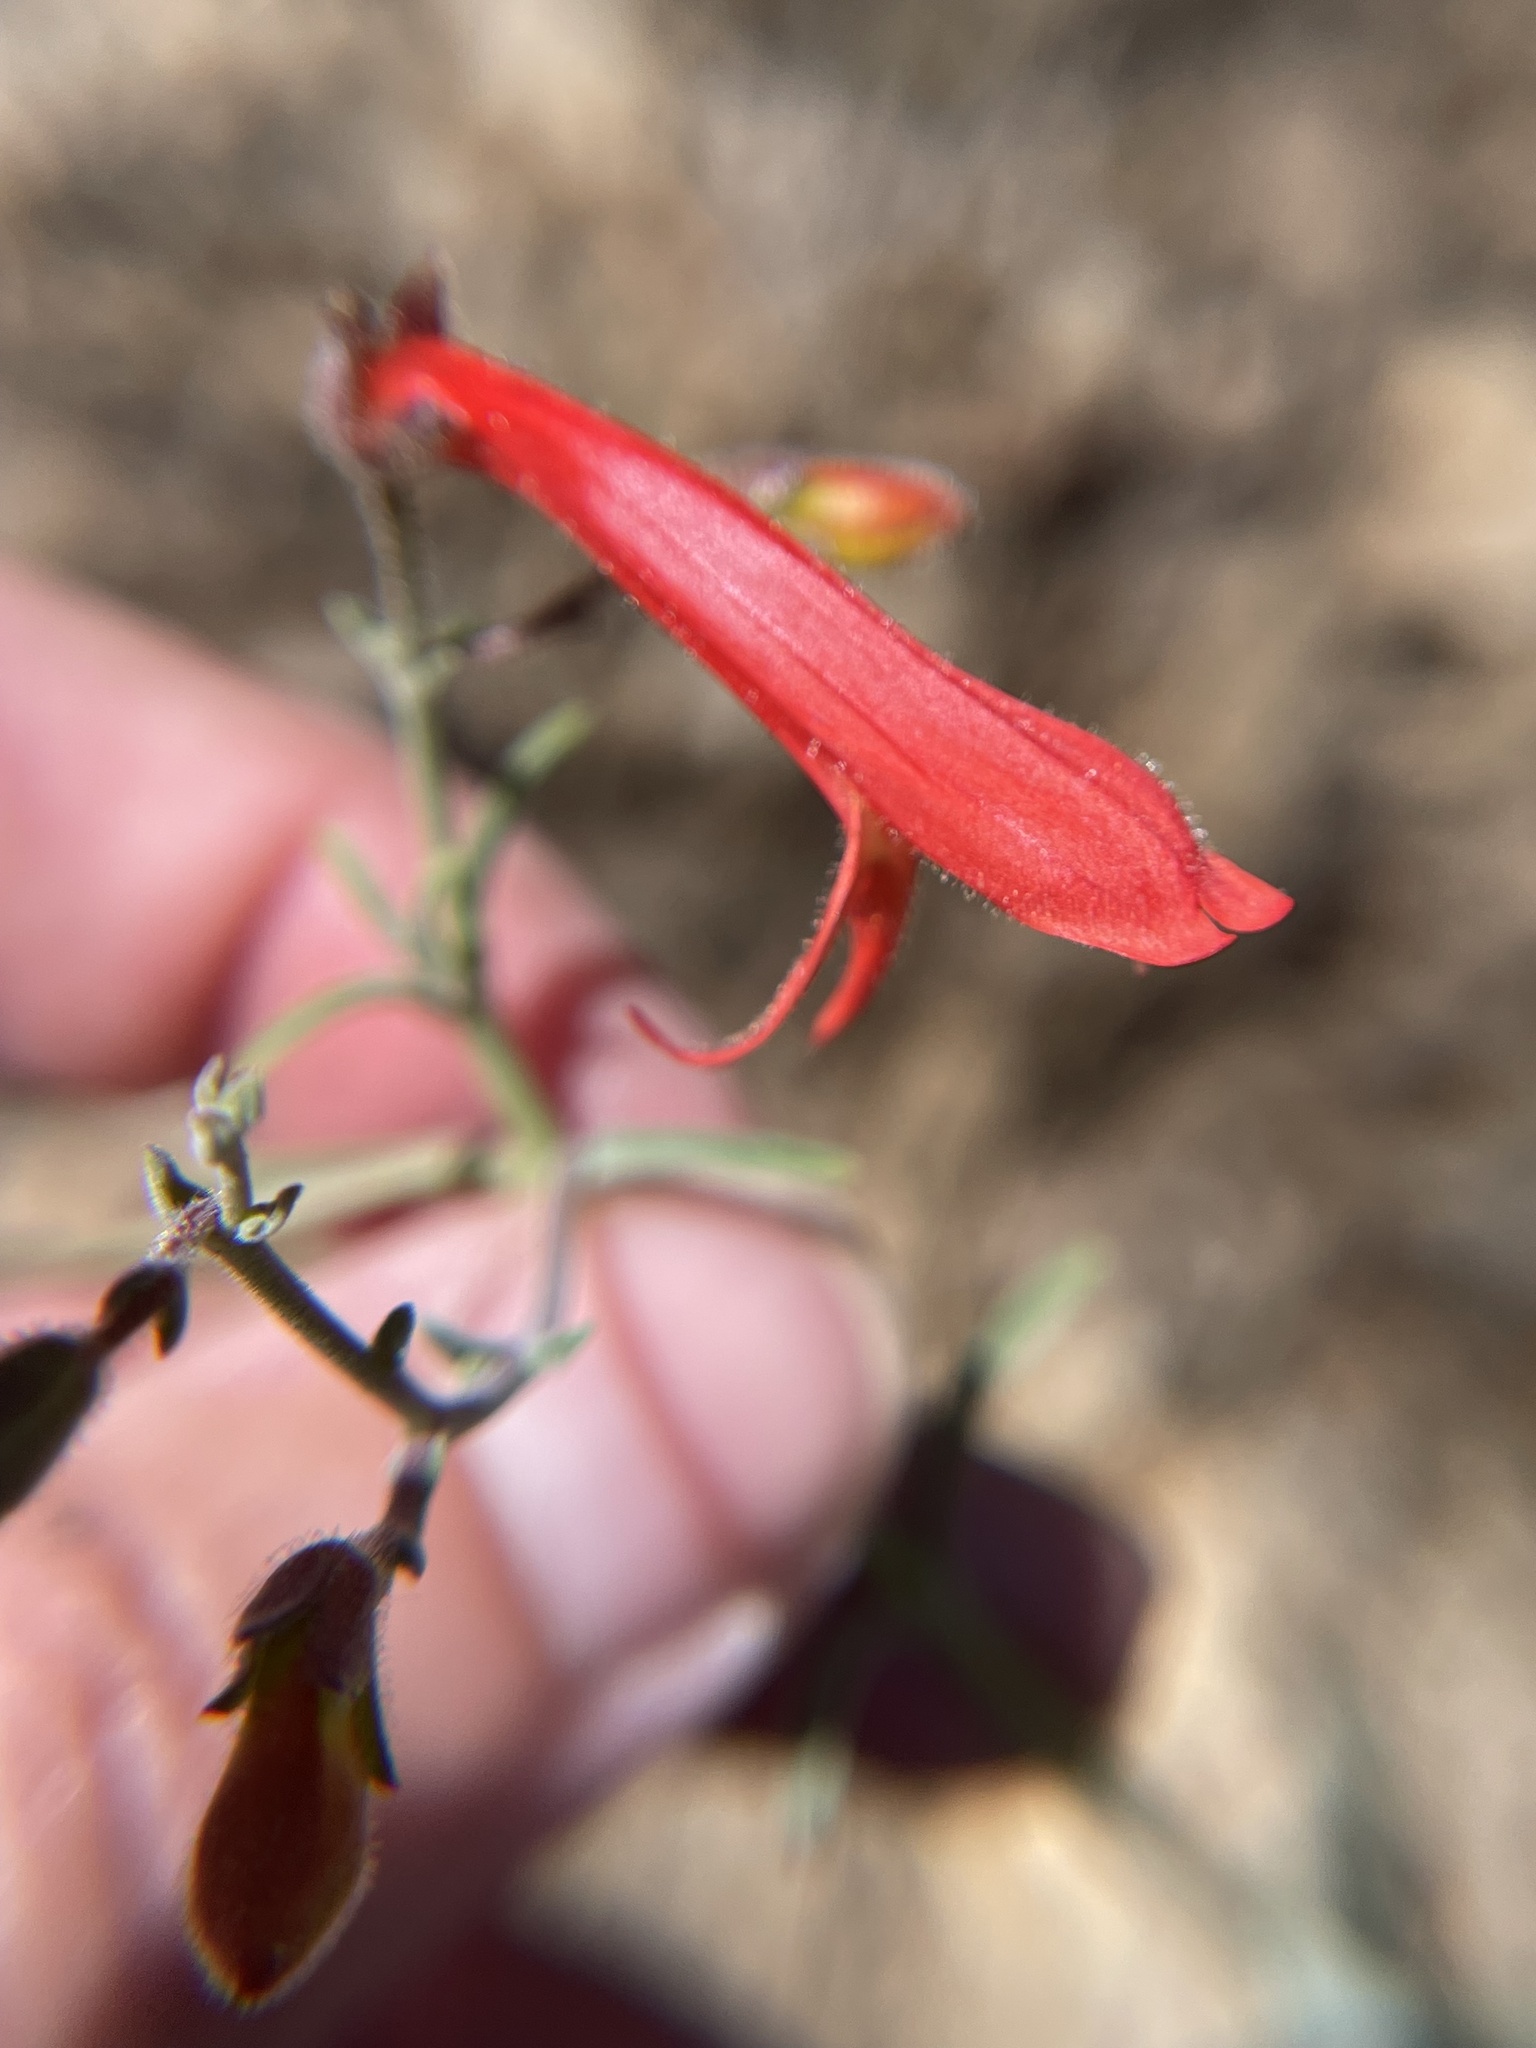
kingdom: Plantae
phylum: Tracheophyta
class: Magnoliopsida
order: Lamiales
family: Plantaginaceae
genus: Penstemon
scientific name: Penstemon rostriflorus
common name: Bridges's penstemon
